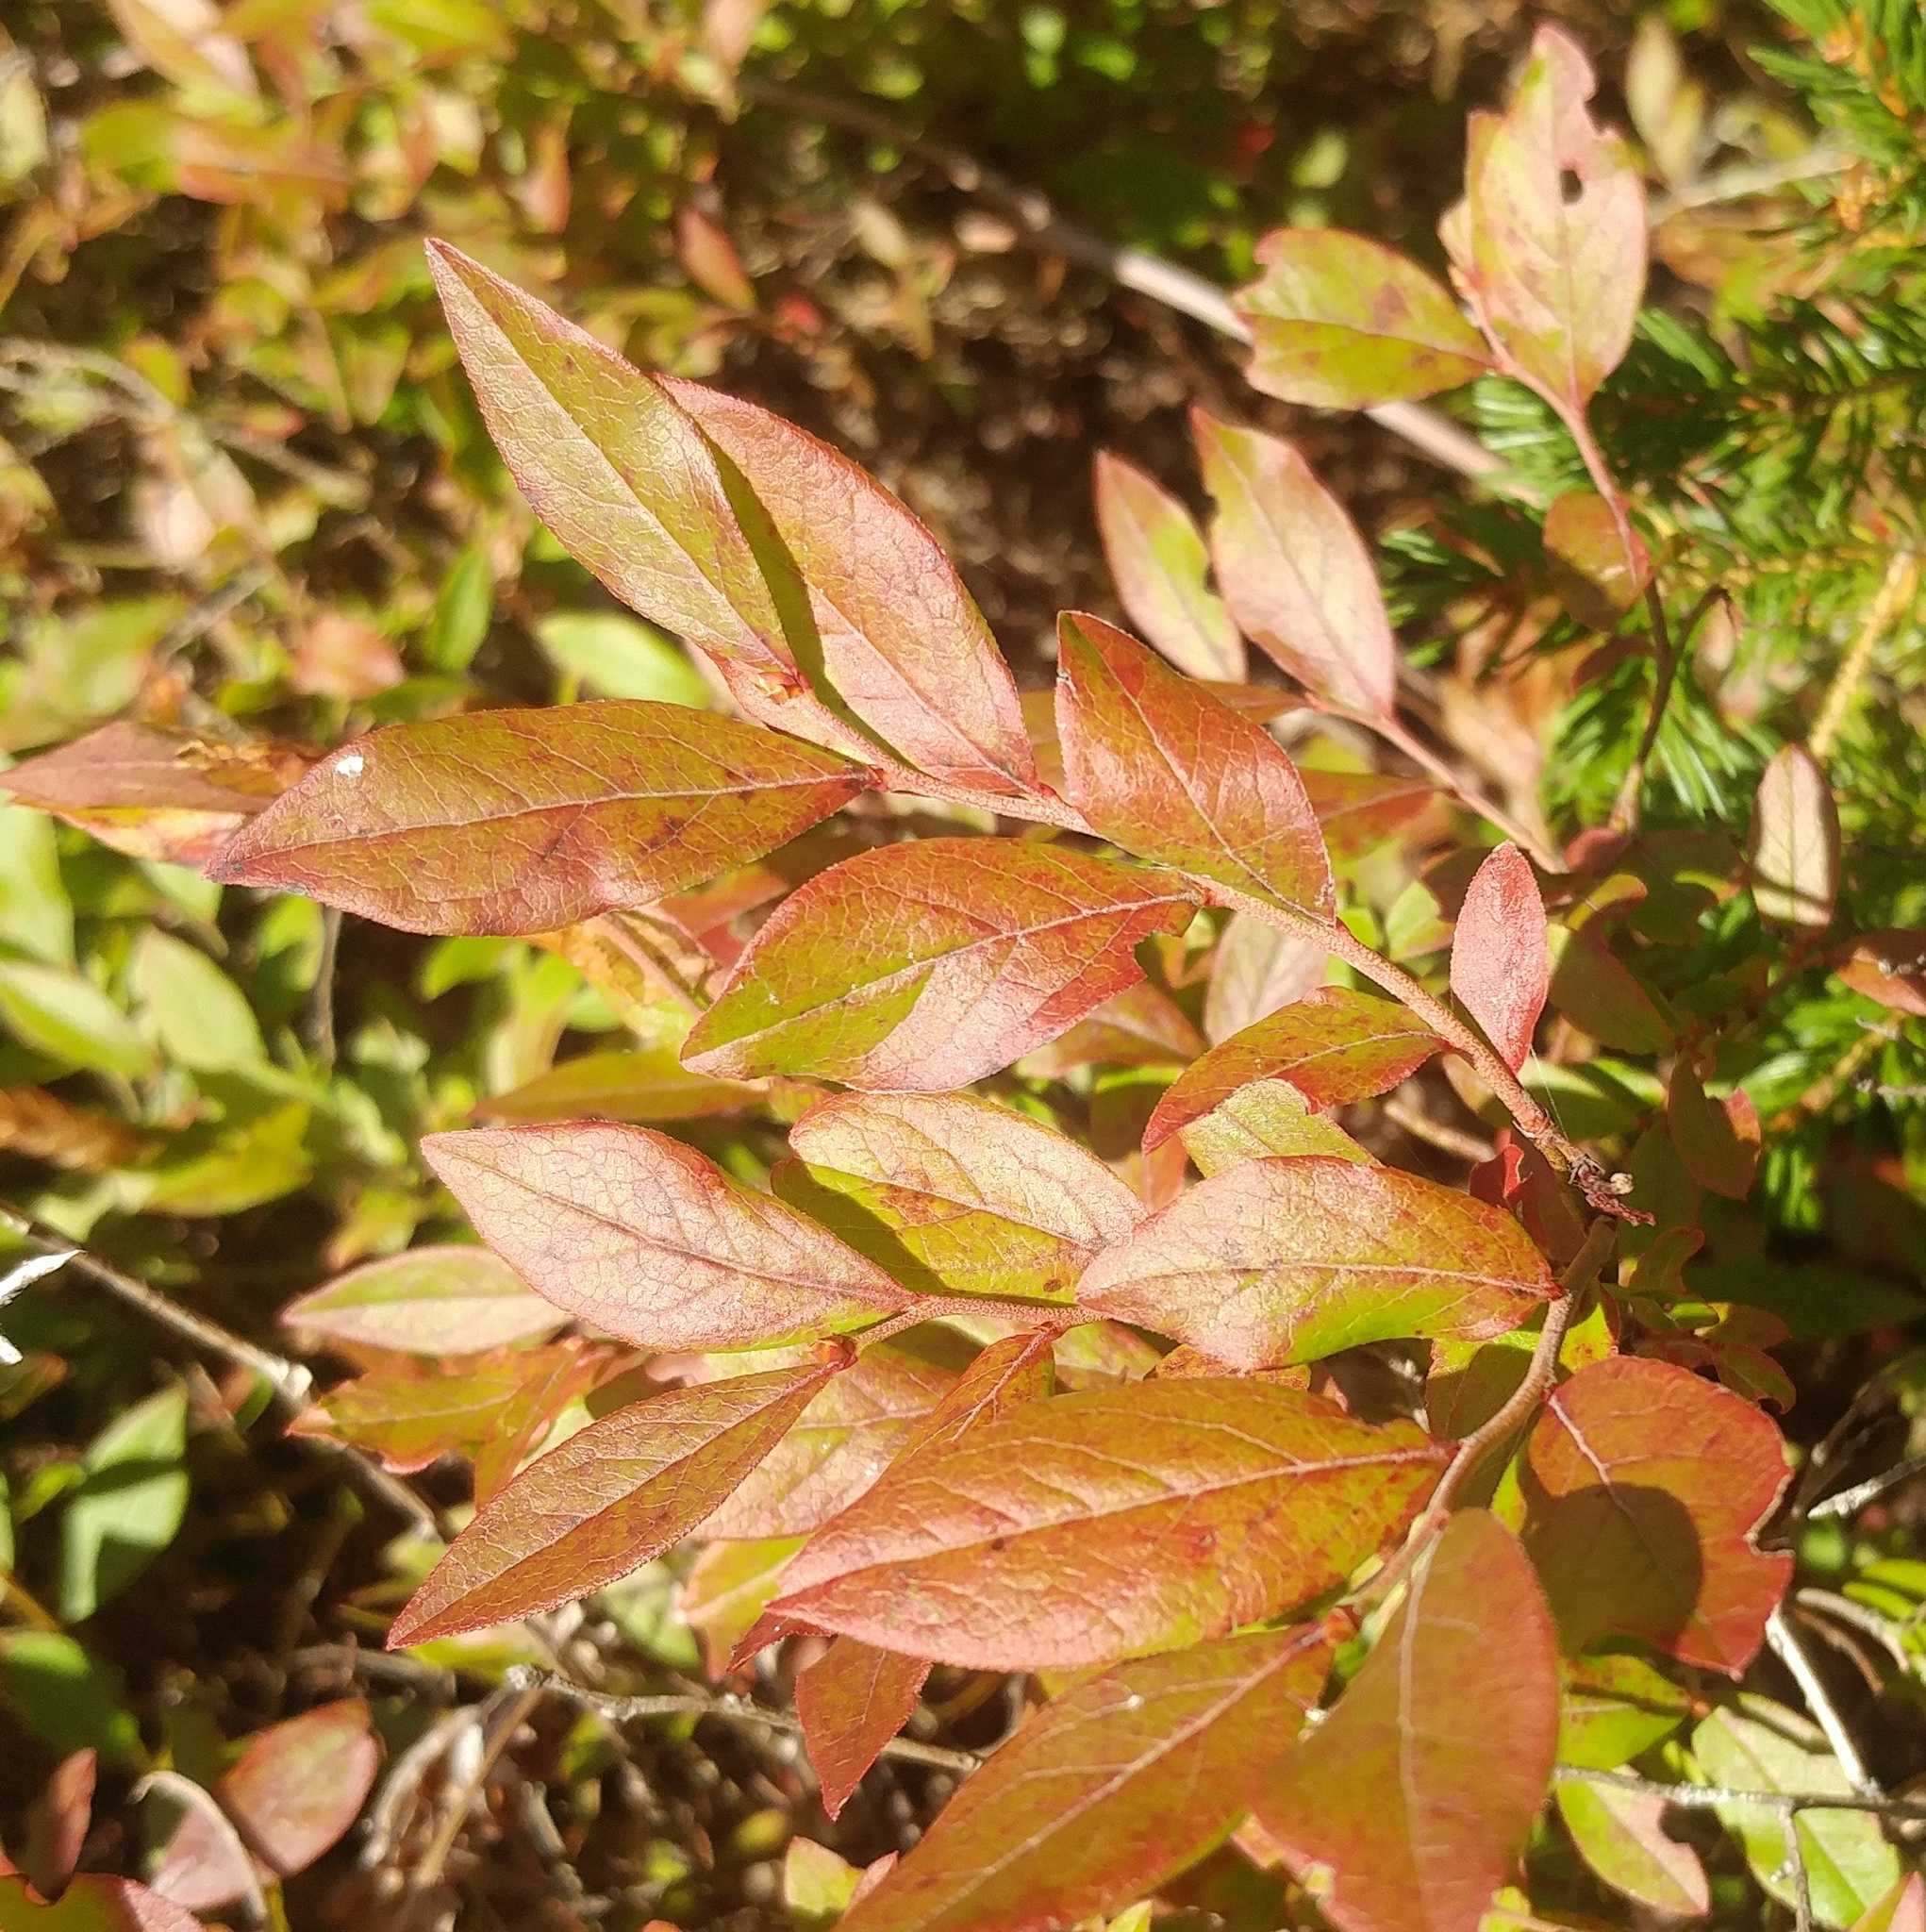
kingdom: Plantae
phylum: Tracheophyta
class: Magnoliopsida
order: Ericales
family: Ericaceae
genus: Vaccinium
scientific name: Vaccinium angustifolium
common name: Early lowbush blueberry
